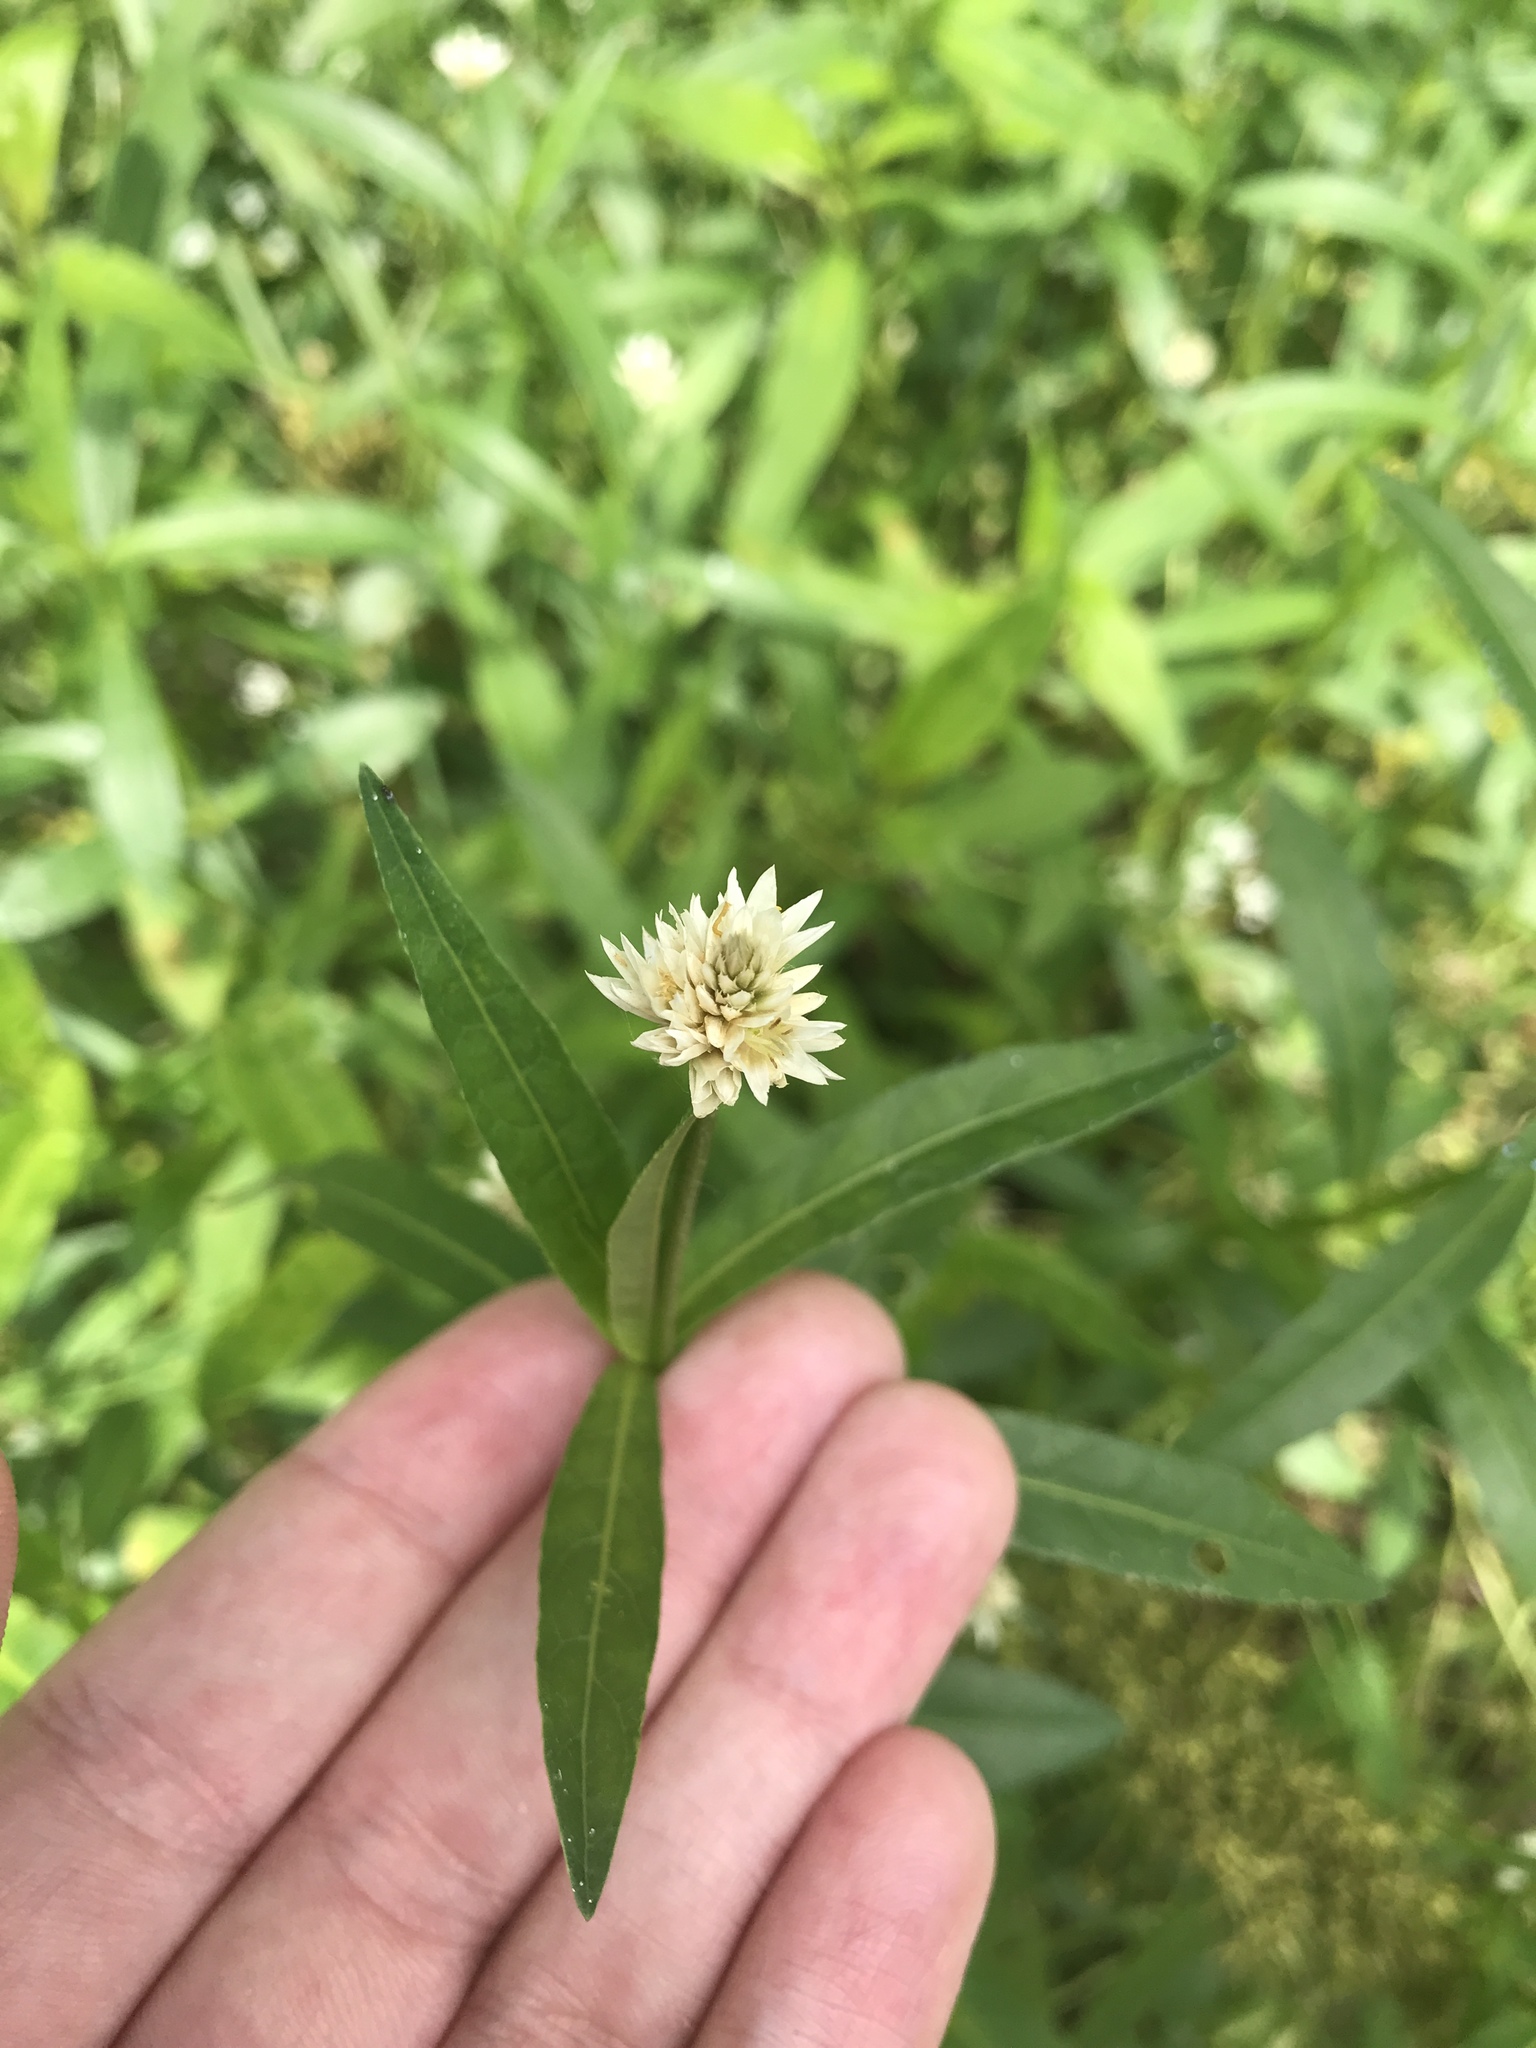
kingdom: Plantae
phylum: Tracheophyta
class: Magnoliopsida
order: Caryophyllales
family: Amaranthaceae
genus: Alternanthera
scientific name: Alternanthera philoxeroides
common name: Alligatorweed
